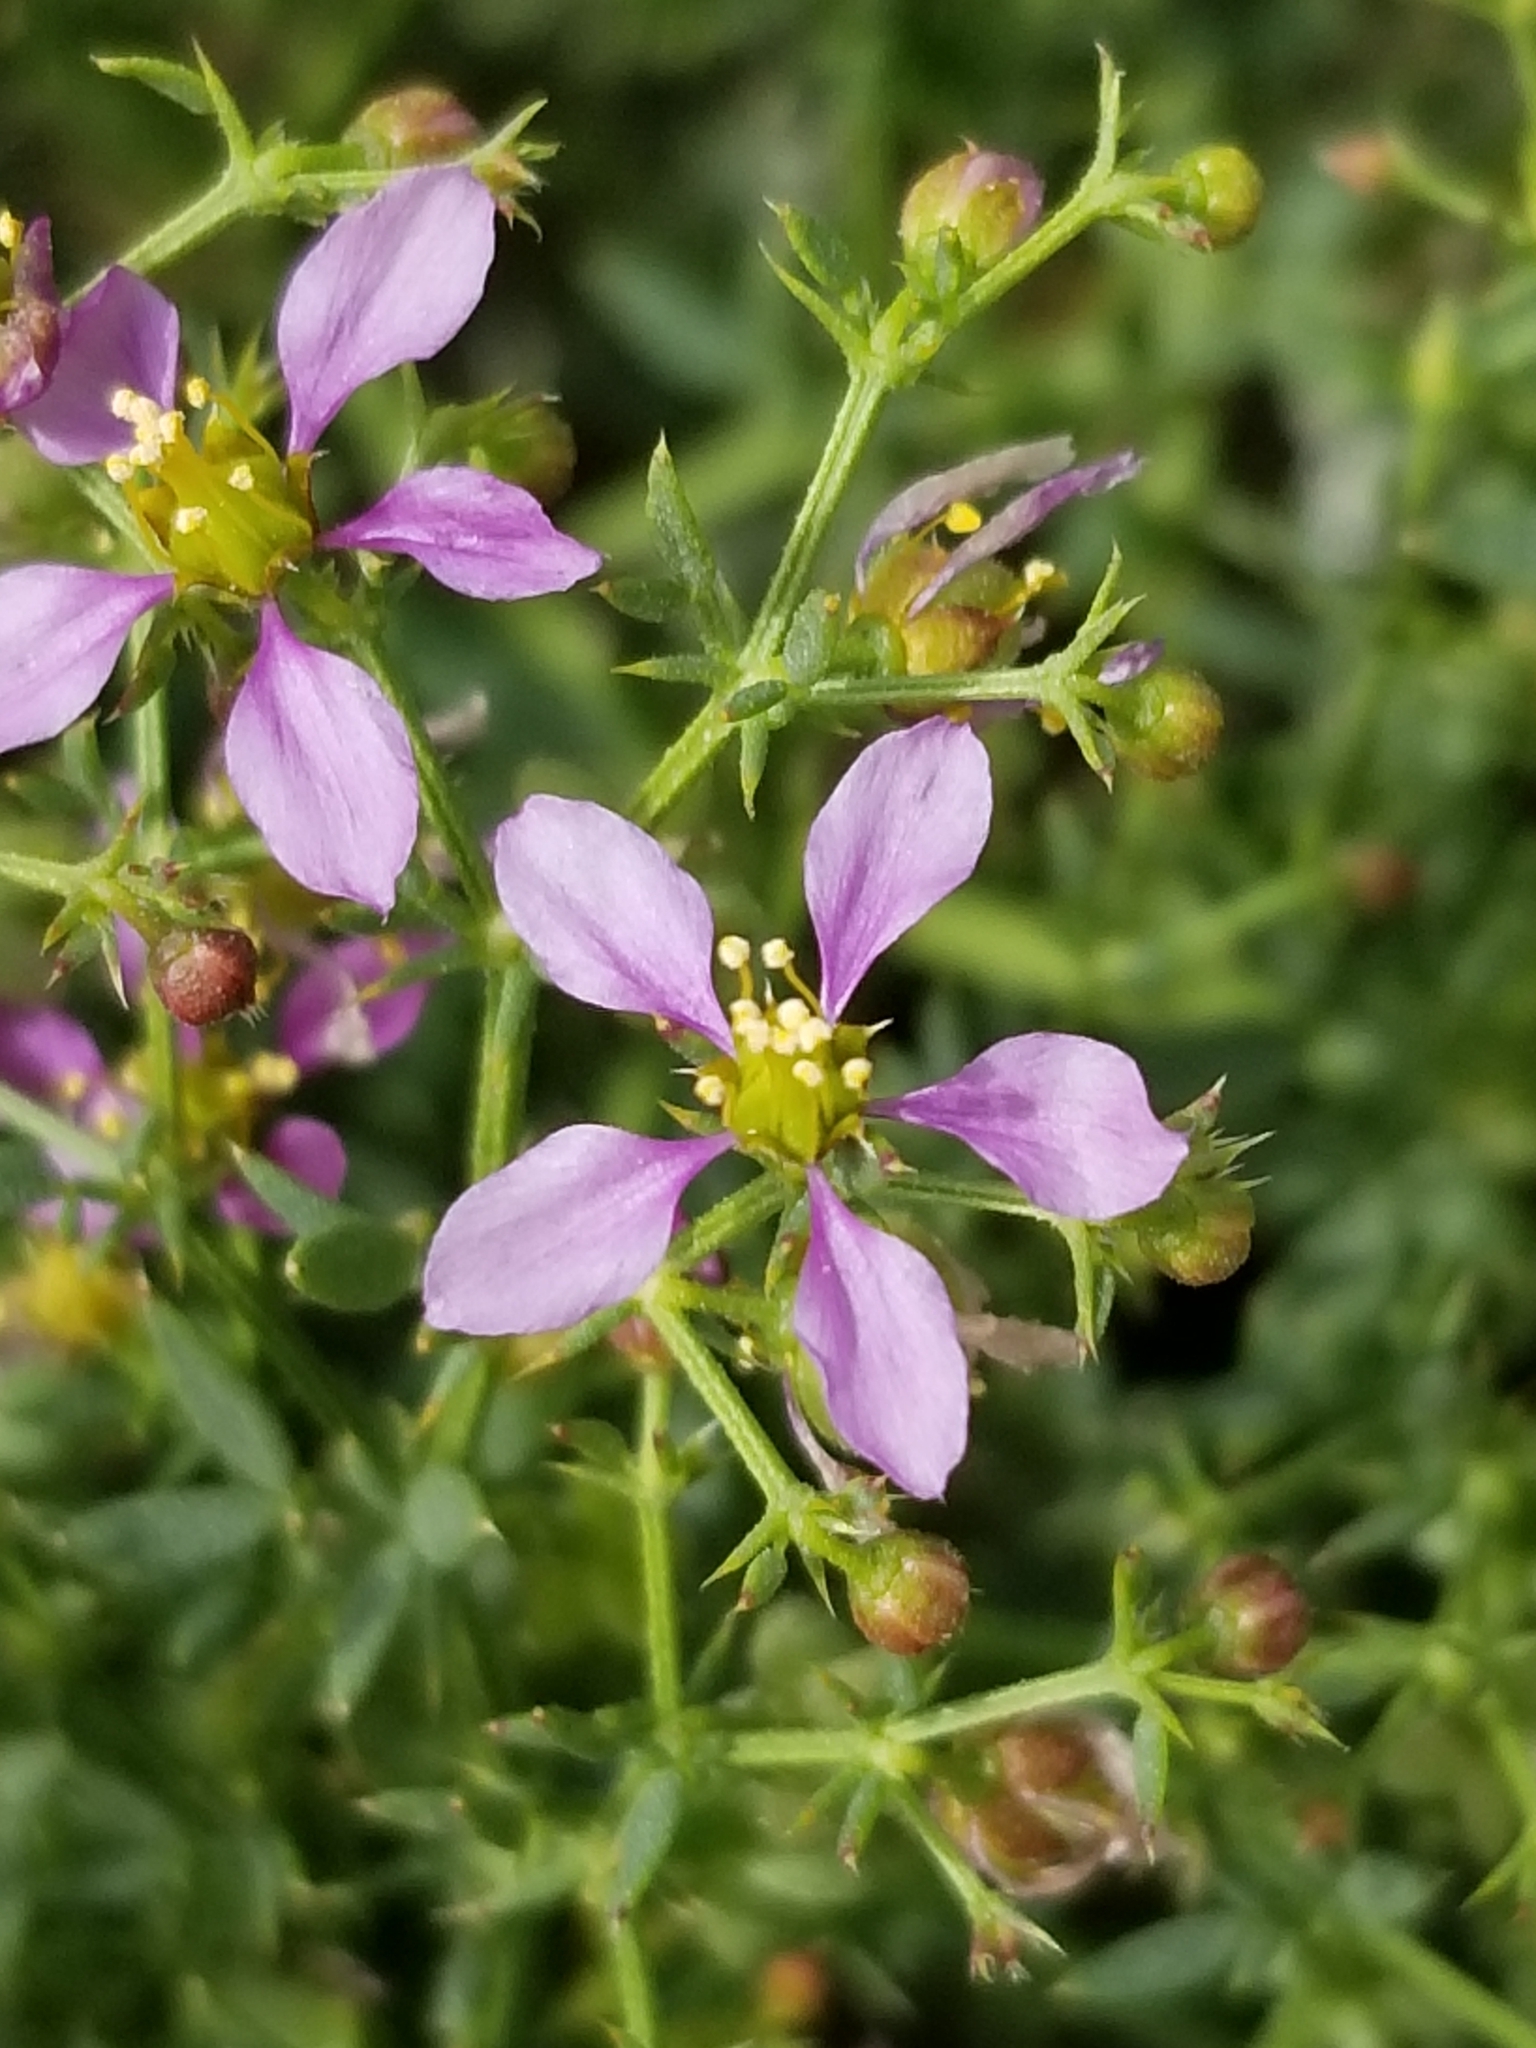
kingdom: Plantae
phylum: Tracheophyta
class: Magnoliopsida
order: Zygophyllales
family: Zygophyllaceae
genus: Fagonia
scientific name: Fagonia laevis
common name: California fagonbush
